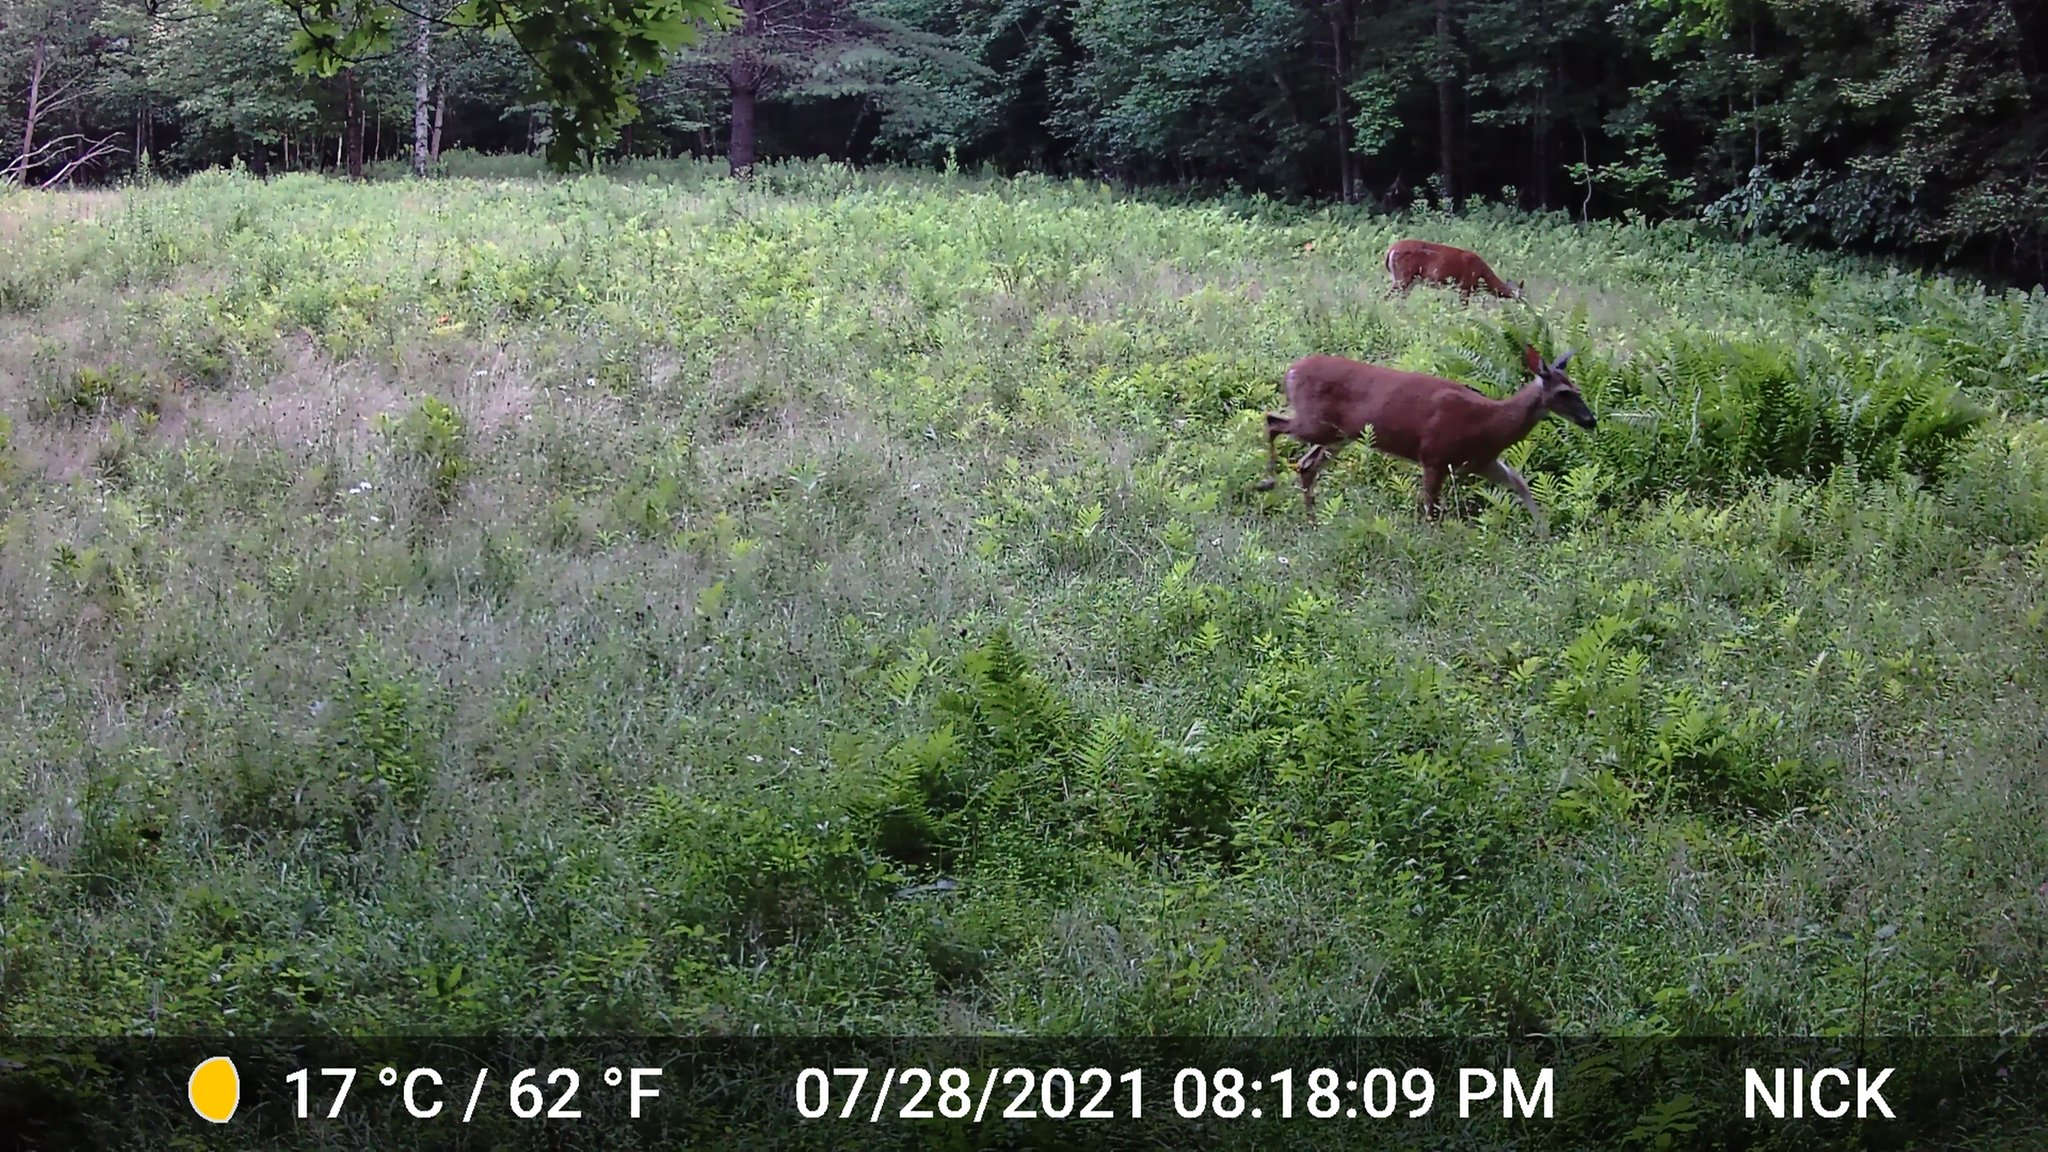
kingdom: Animalia
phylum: Chordata
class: Mammalia
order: Artiodactyla
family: Cervidae
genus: Odocoileus
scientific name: Odocoileus virginianus
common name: White-tailed deer
